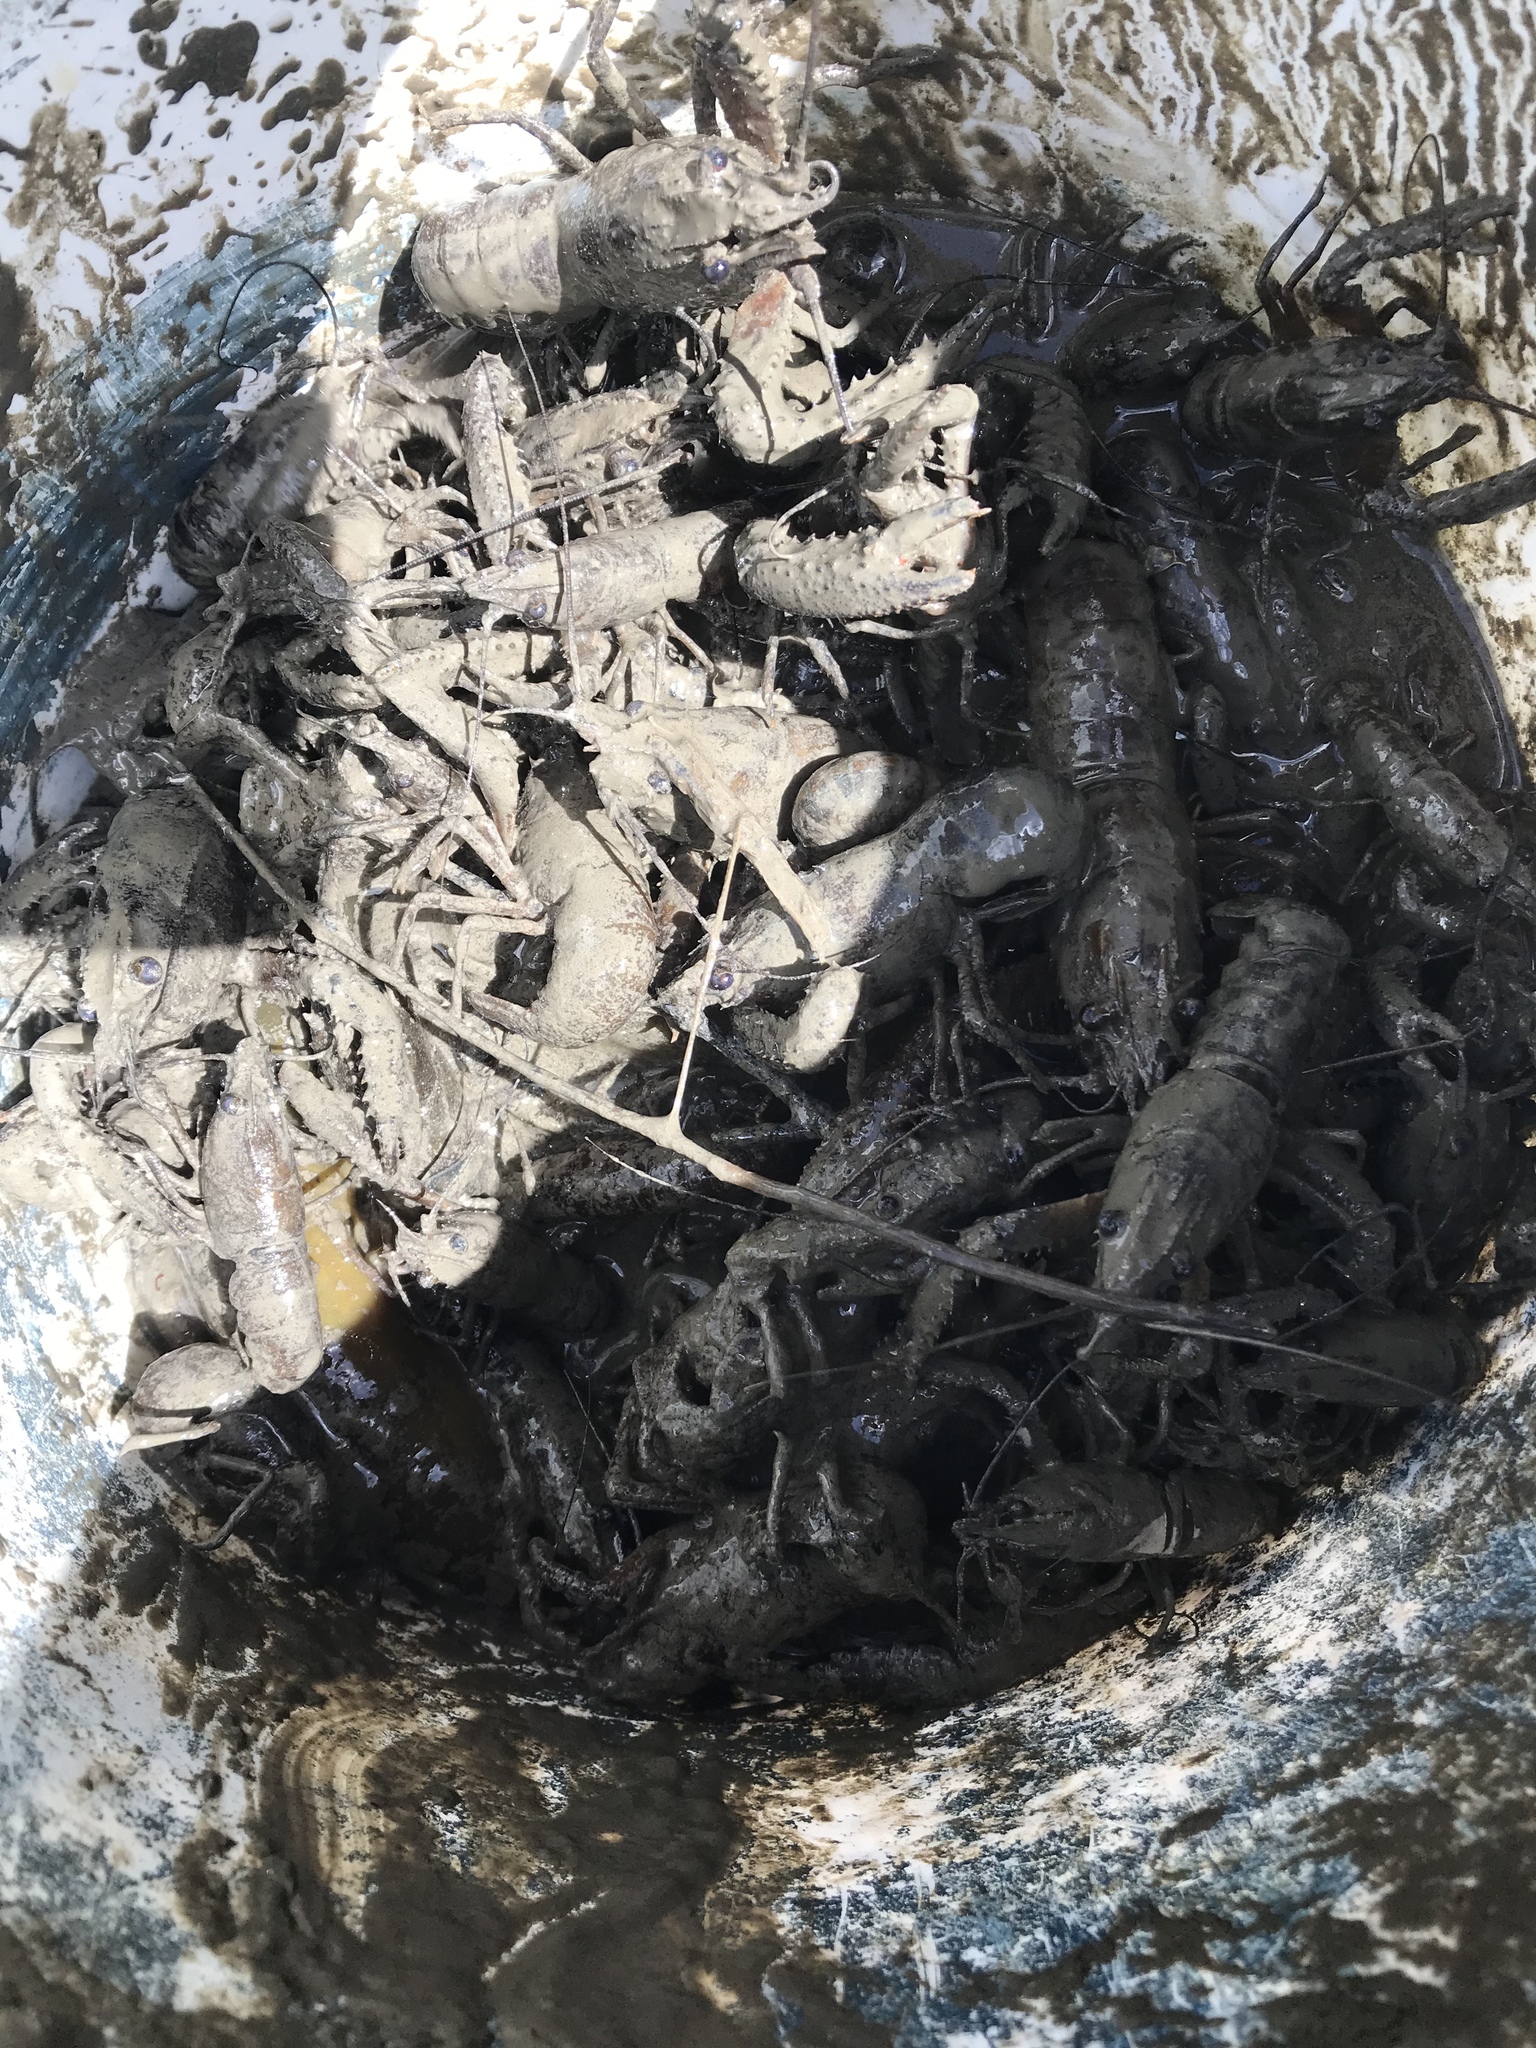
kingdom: Animalia
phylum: Arthropoda
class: Malacostraca
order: Decapoda
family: Parastacidae
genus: Paranephrops
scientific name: Paranephrops planifrons
